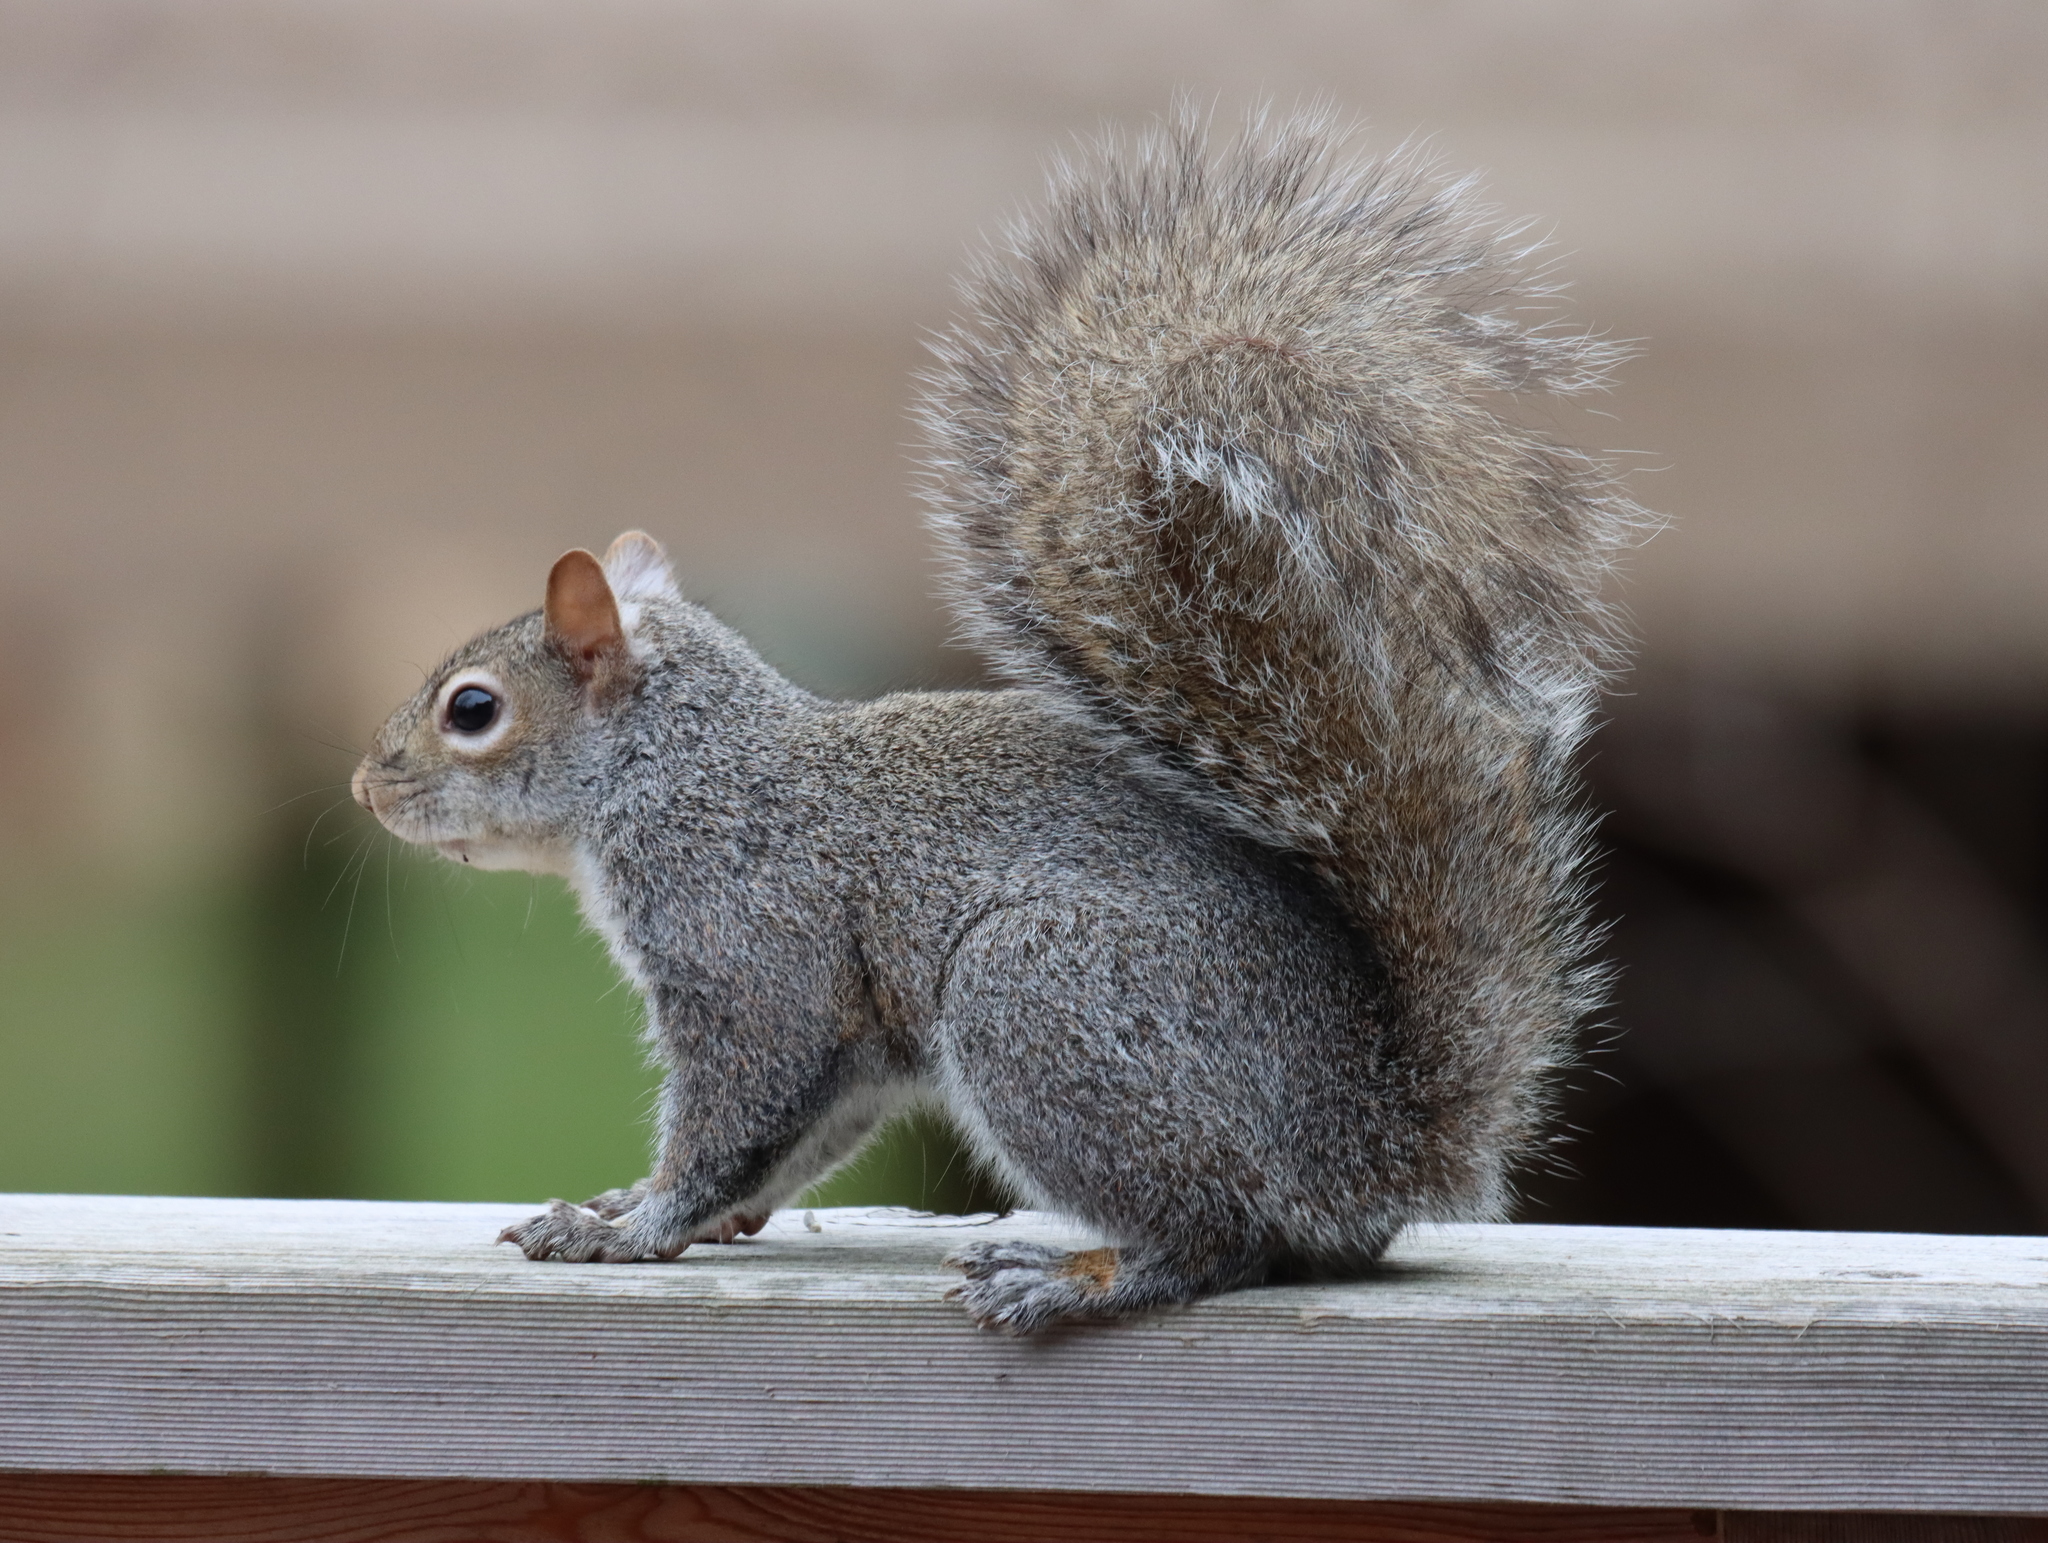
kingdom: Animalia
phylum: Chordata
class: Mammalia
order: Rodentia
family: Sciuridae
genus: Sciurus
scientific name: Sciurus carolinensis
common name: Eastern gray squirrel
